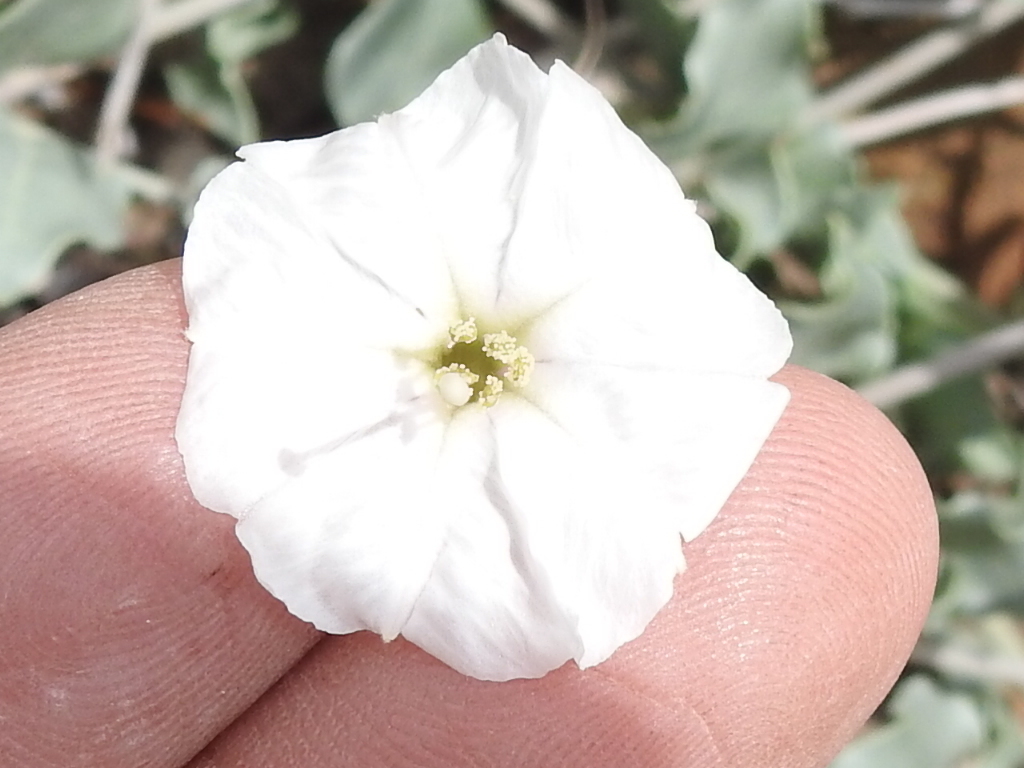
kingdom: Plantae
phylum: Tracheophyta
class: Magnoliopsida
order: Caryophyllales
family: Nyctaginaceae
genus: Acleisanthes
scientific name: Acleisanthes longiflora
